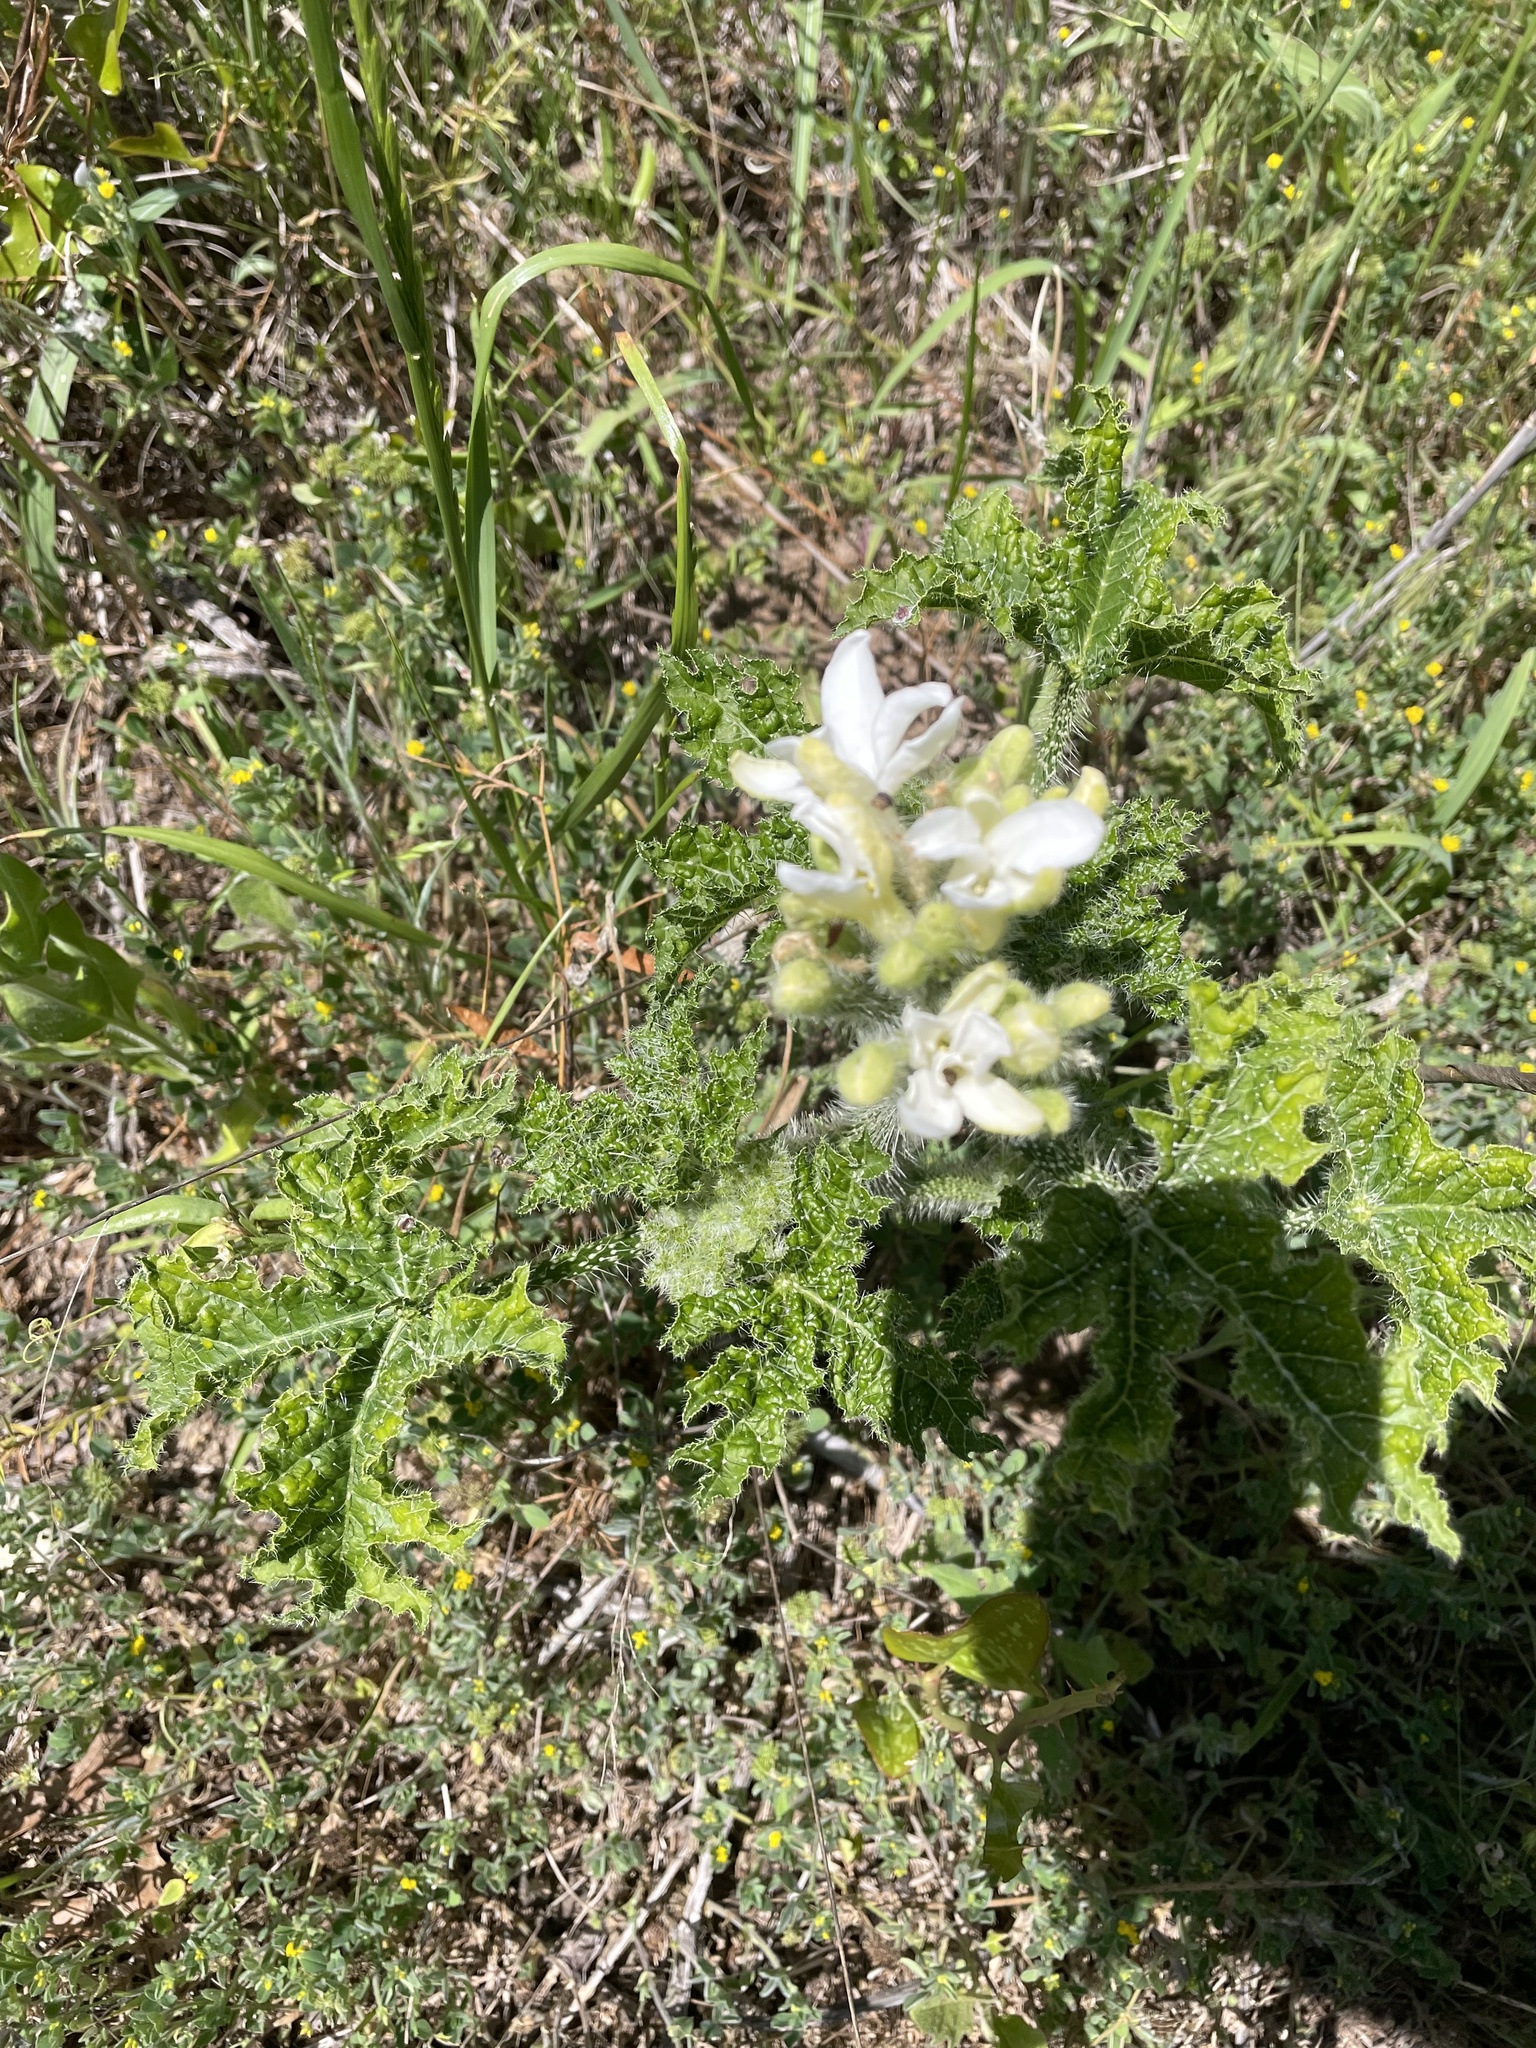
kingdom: Plantae
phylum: Tracheophyta
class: Magnoliopsida
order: Malpighiales
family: Euphorbiaceae
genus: Cnidoscolus
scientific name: Cnidoscolus texanus
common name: Texas bull-nettle
